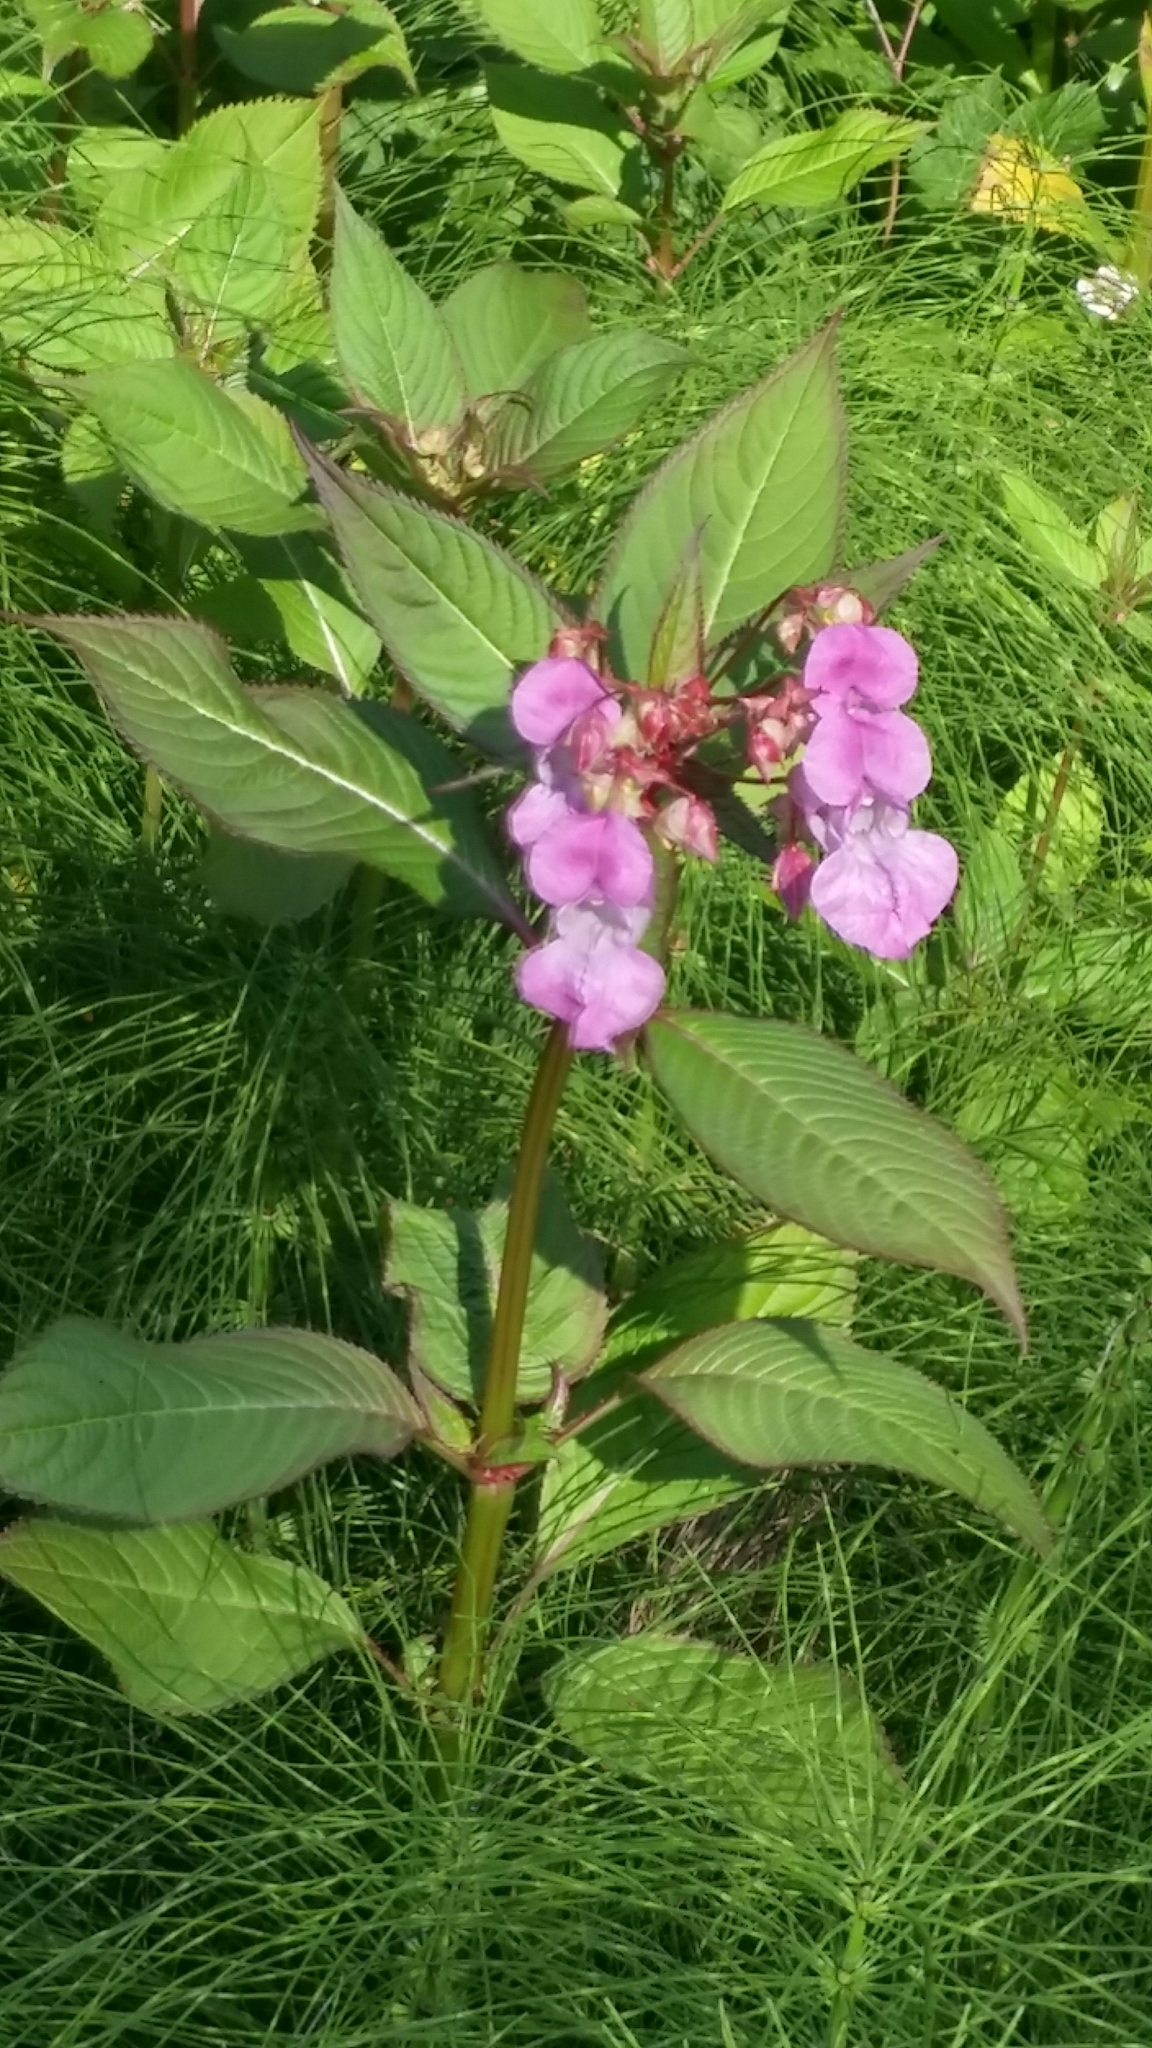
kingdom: Plantae
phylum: Tracheophyta
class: Magnoliopsida
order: Ericales
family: Balsaminaceae
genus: Impatiens
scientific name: Impatiens glandulifera
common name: Himalayan balsam
